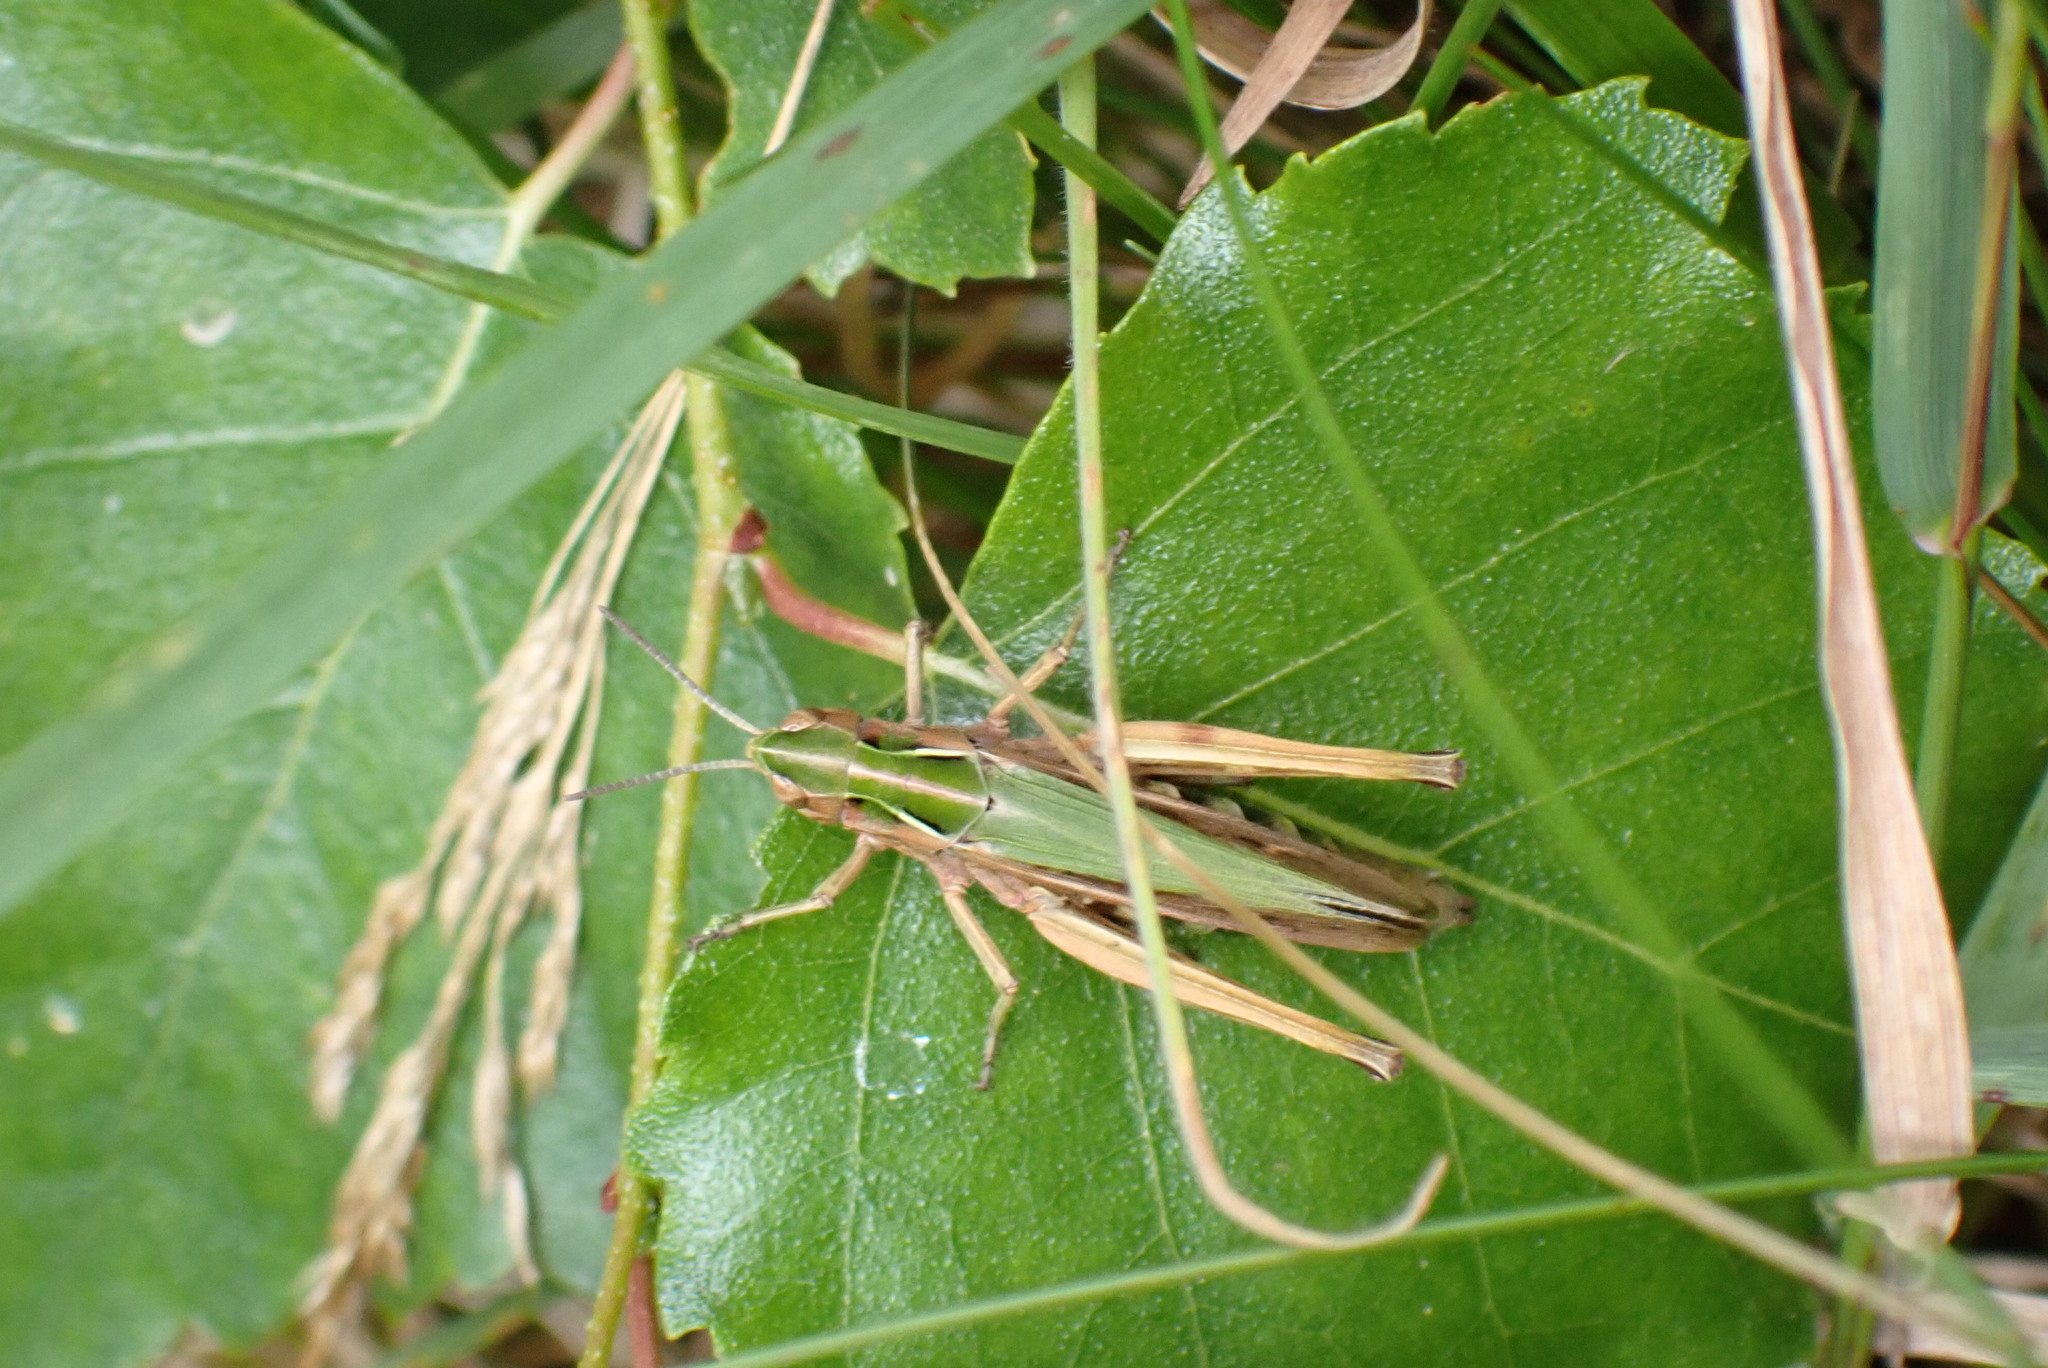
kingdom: Animalia
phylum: Arthropoda
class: Insecta
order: Orthoptera
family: Acrididae
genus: Omocestus
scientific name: Omocestus viridulus
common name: Common green grasshopper
